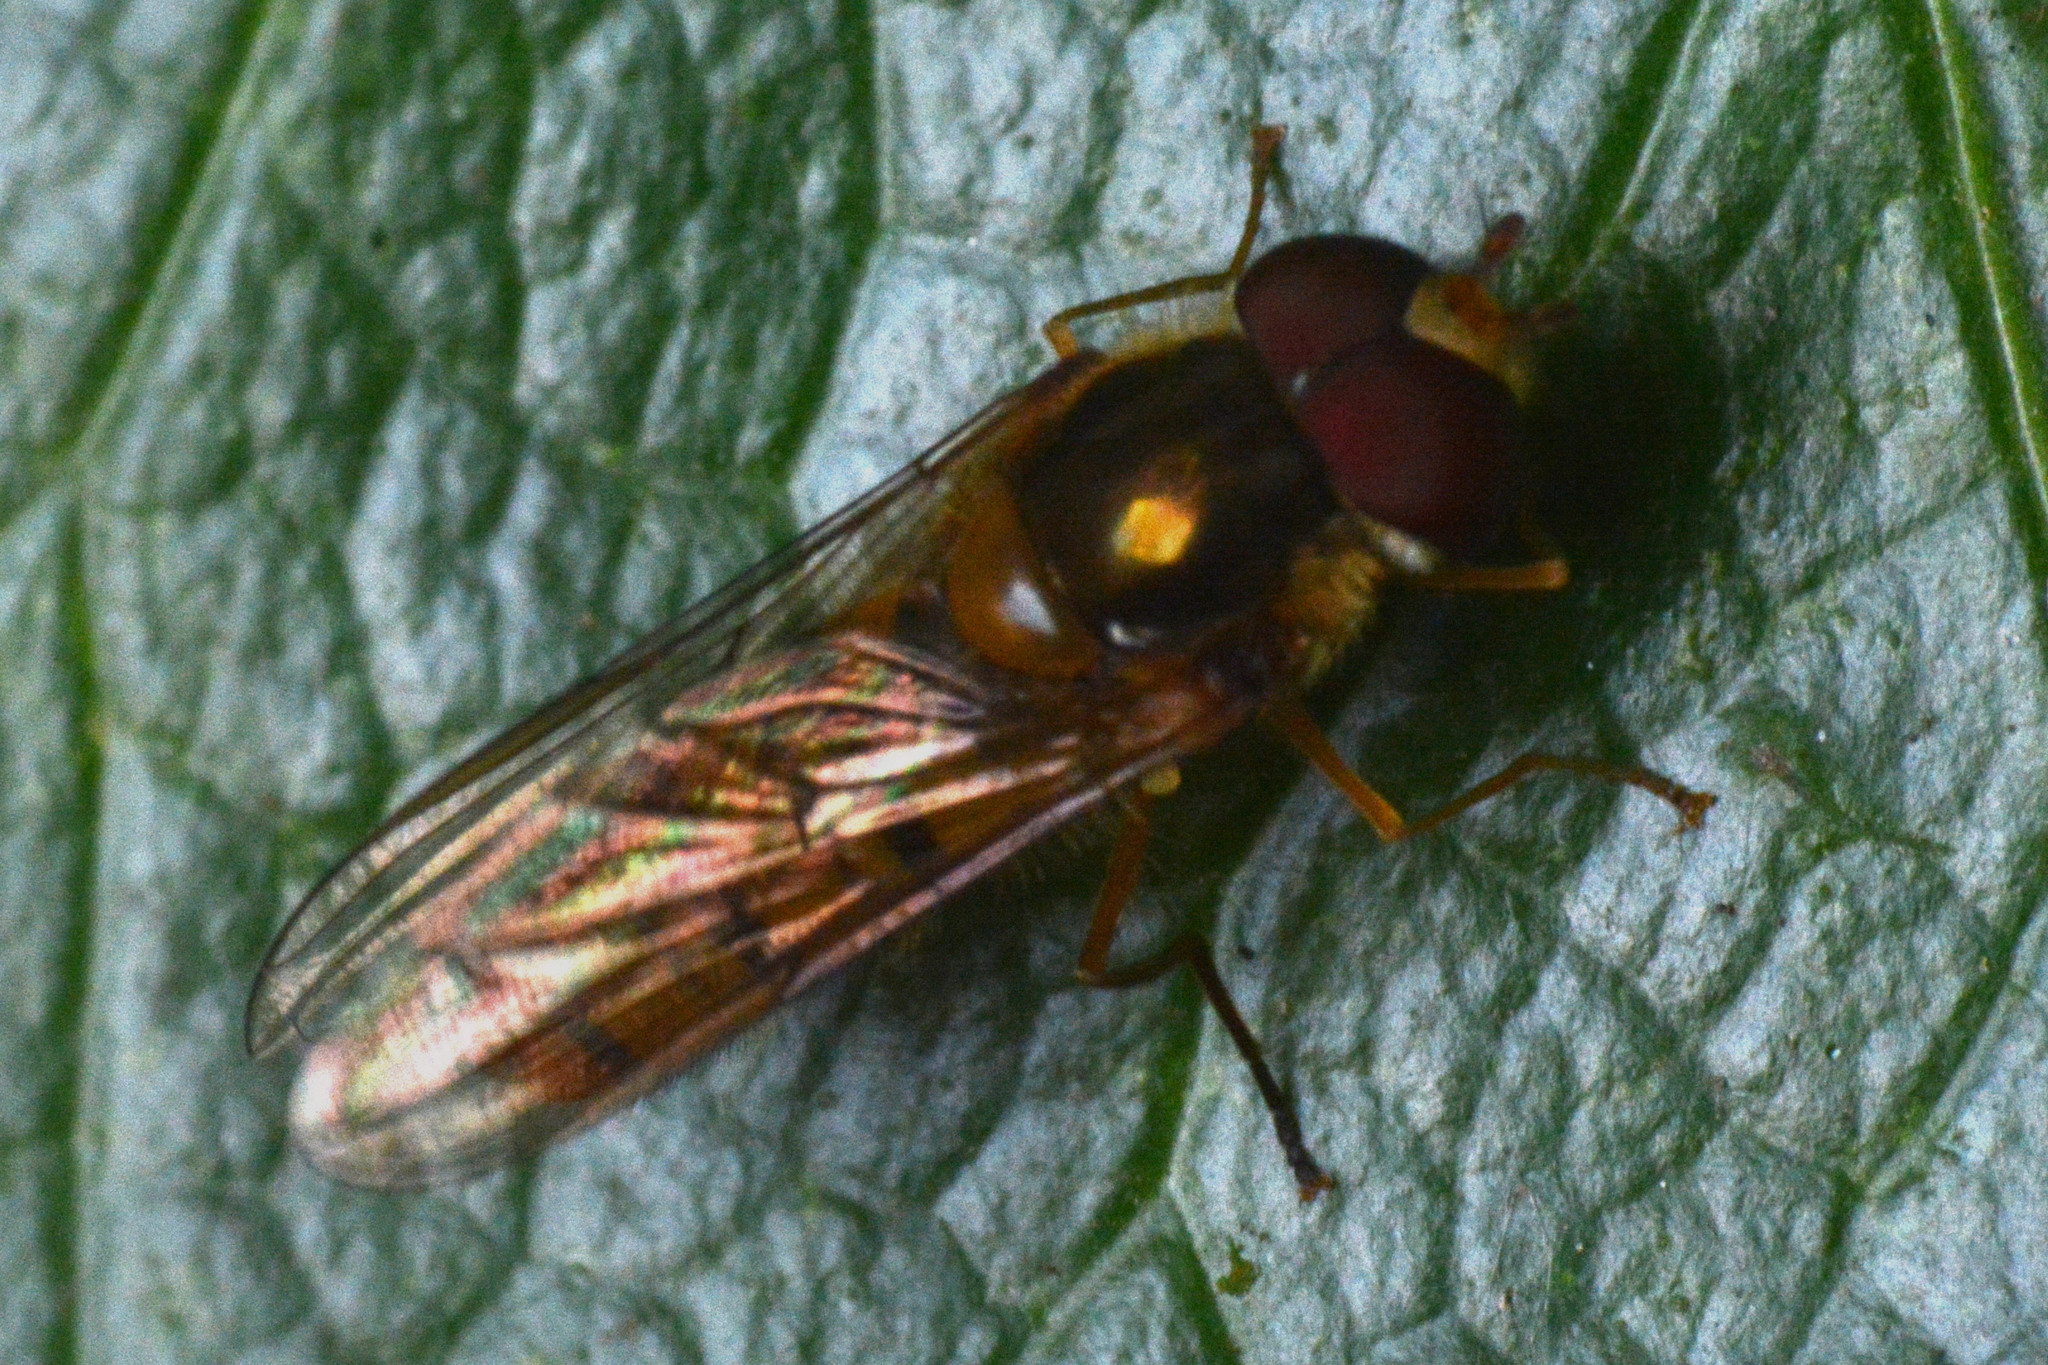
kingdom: Animalia
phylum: Arthropoda
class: Insecta
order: Diptera
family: Syrphidae
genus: Episyrphus
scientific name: Episyrphus balteatus
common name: Marmalade hoverfly
